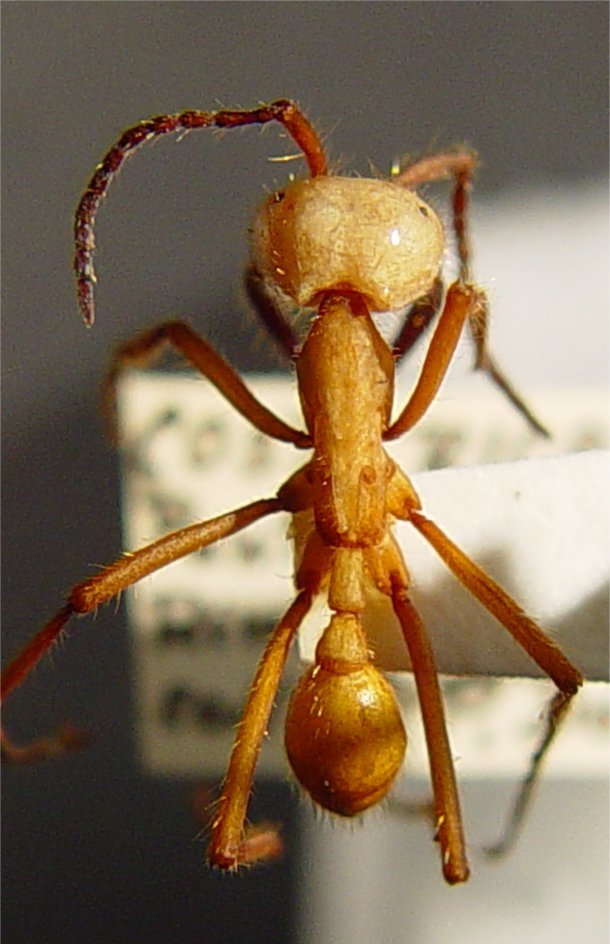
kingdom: Animalia
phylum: Arthropoda
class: Insecta
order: Hymenoptera
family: Formicidae
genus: Eciton
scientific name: Eciton hamatum
